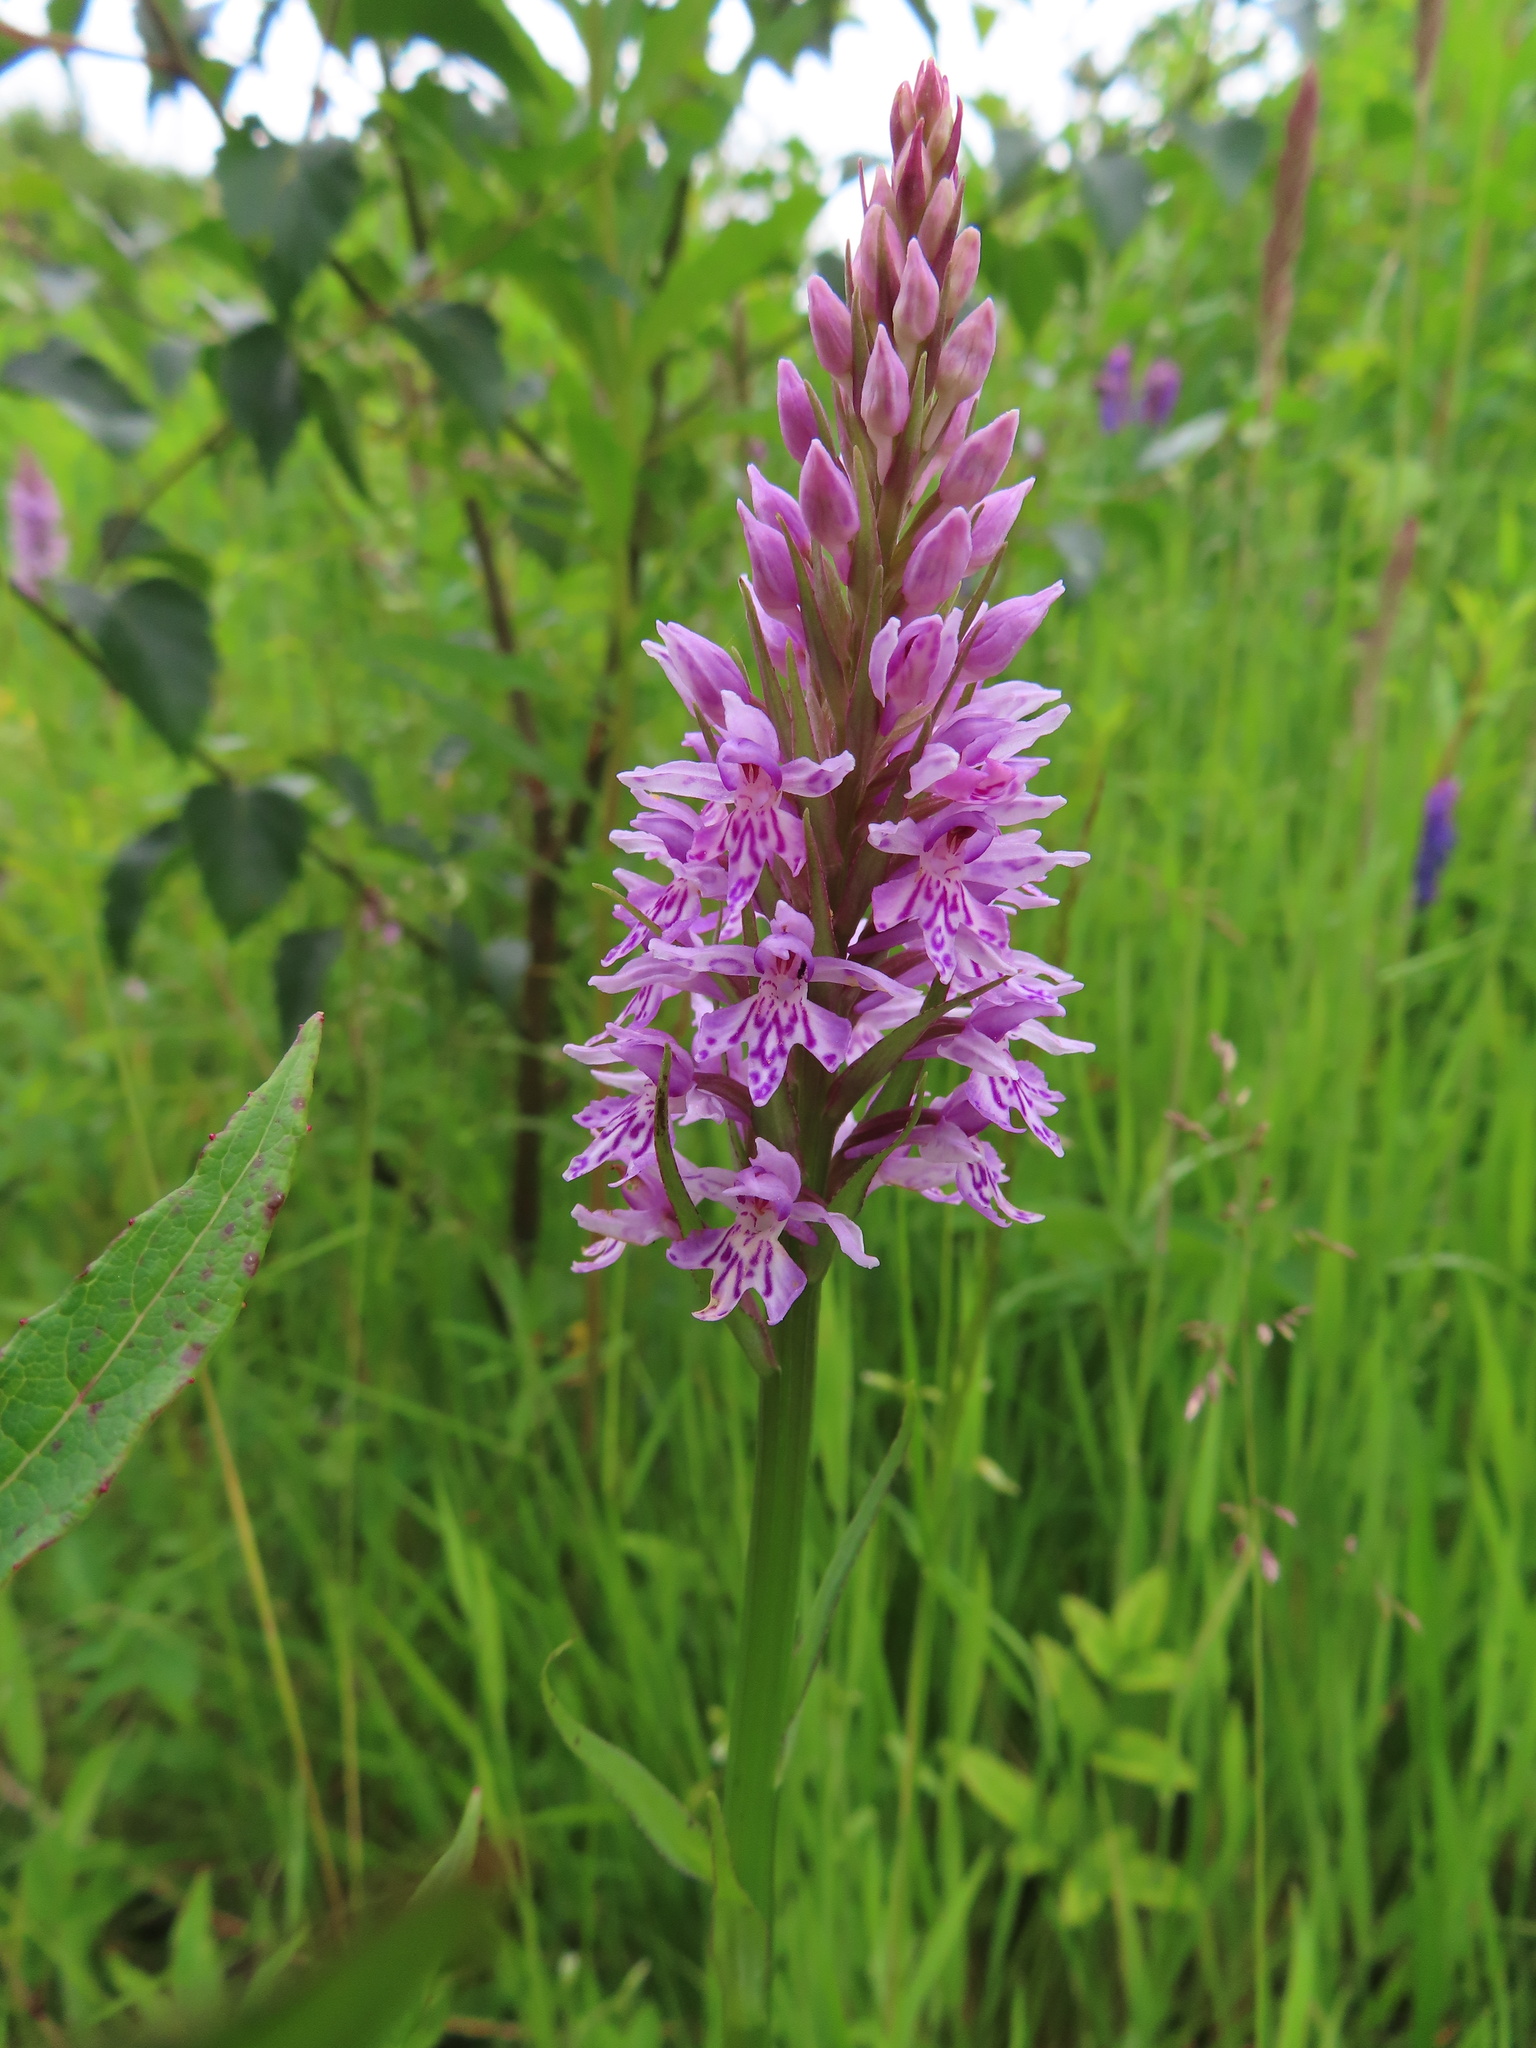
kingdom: Plantae
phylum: Tracheophyta
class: Liliopsida
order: Asparagales
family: Orchidaceae
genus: Dactylorhiza
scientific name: Dactylorhiza maculata
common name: Heath spotted-orchid
